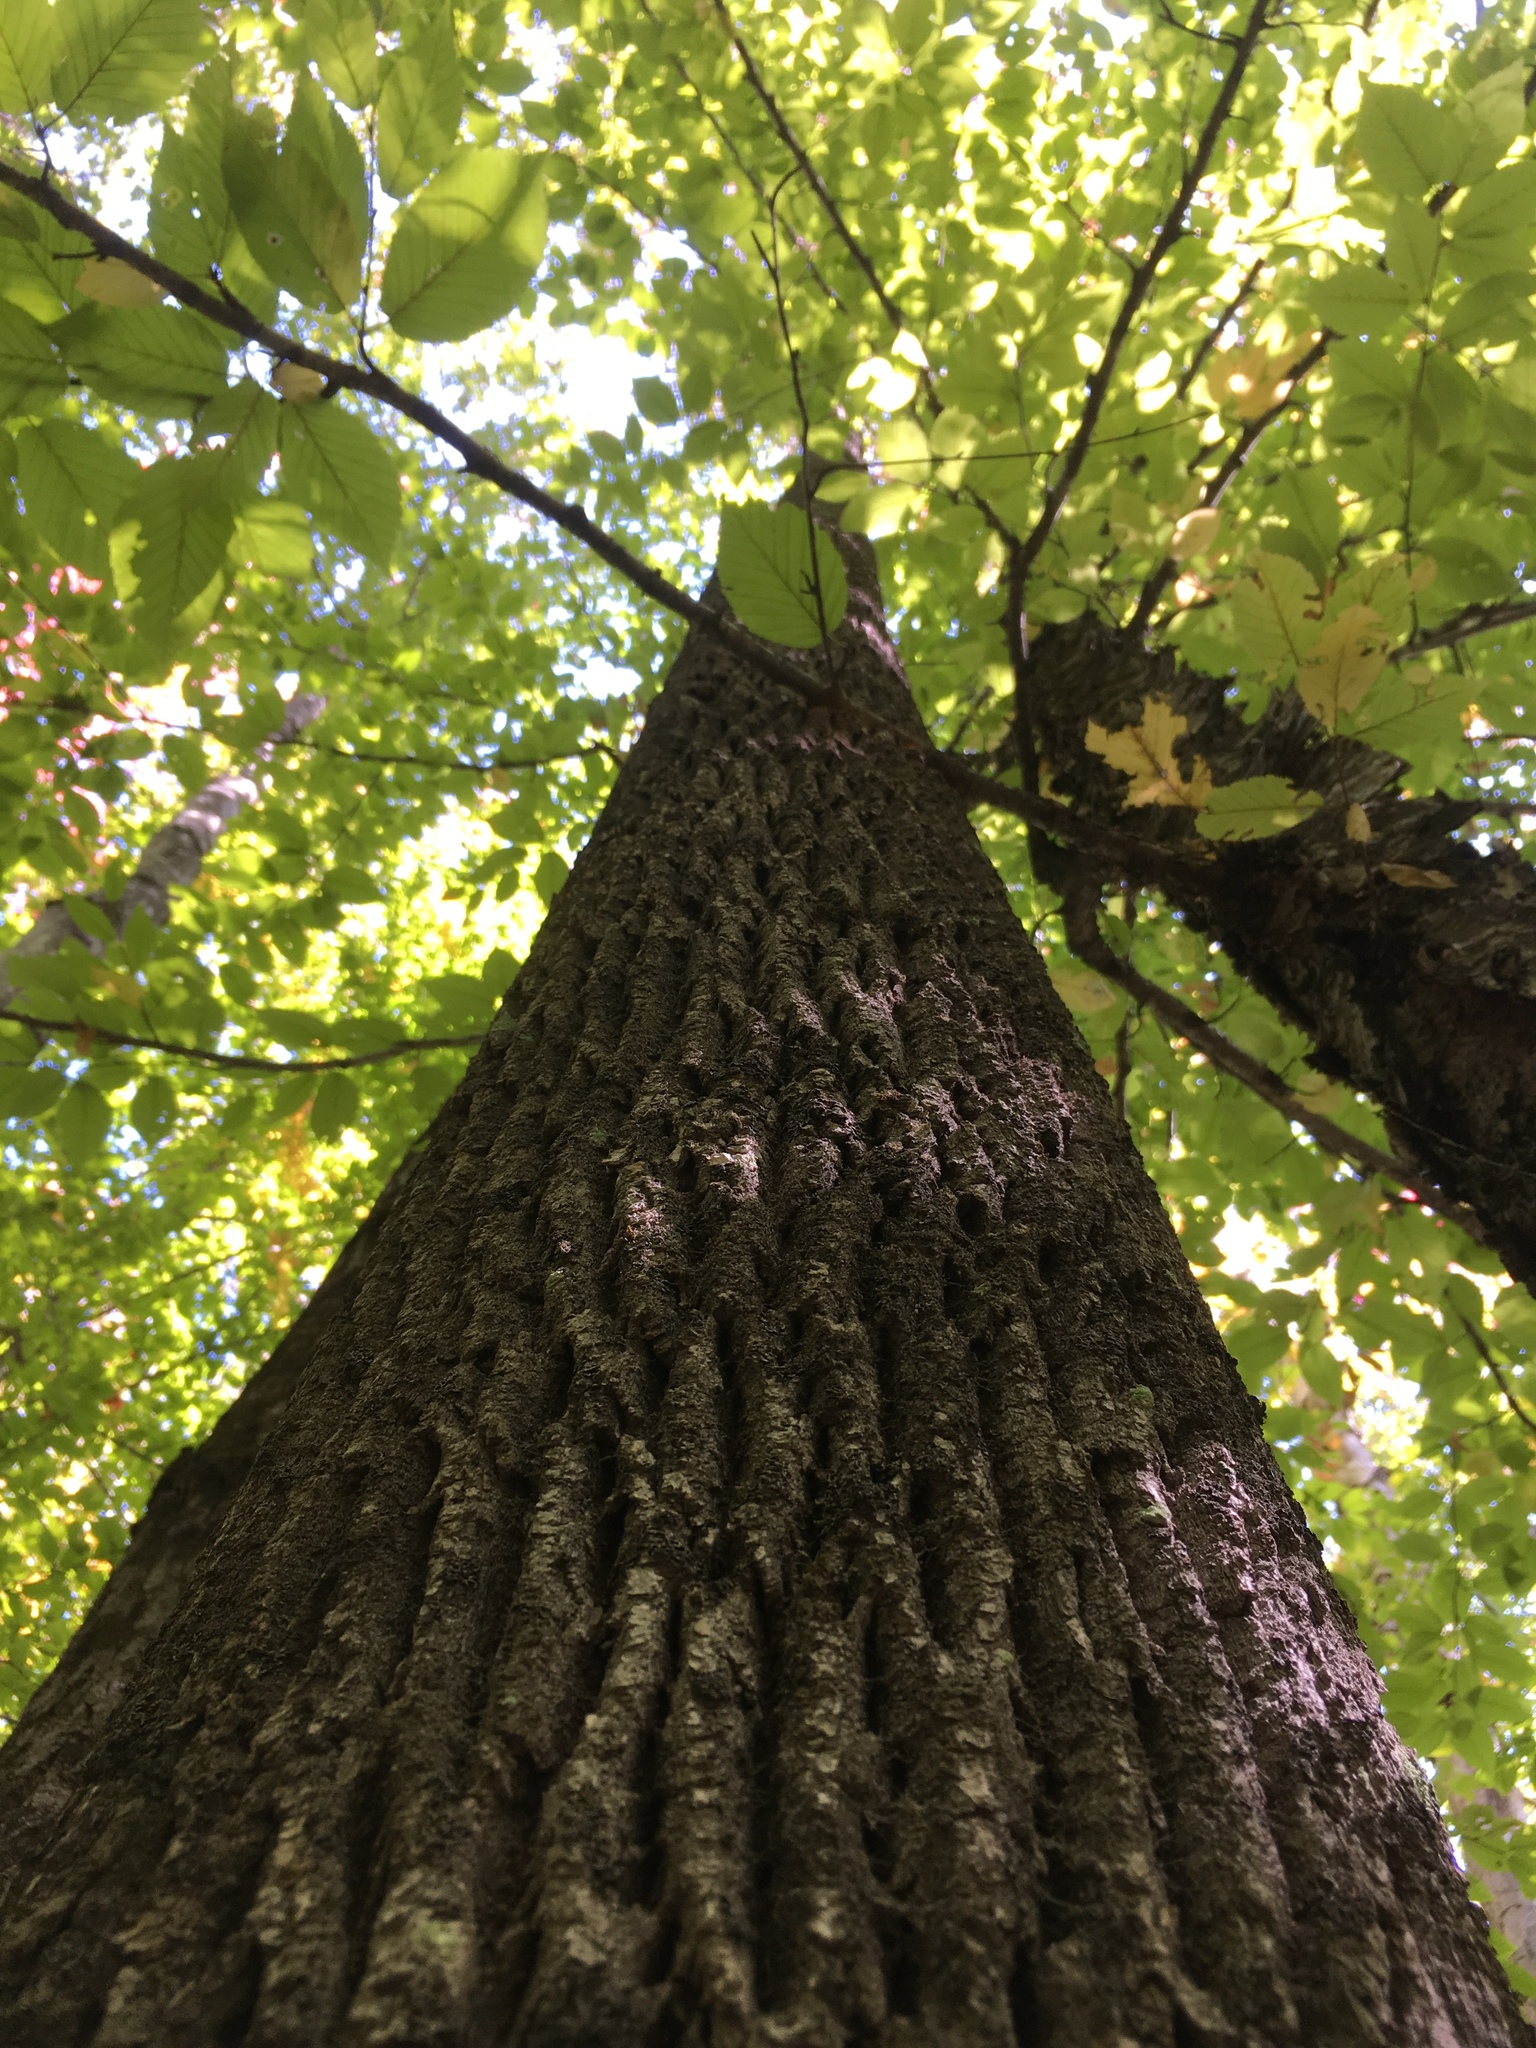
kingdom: Plantae
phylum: Tracheophyta
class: Magnoliopsida
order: Lamiales
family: Oleaceae
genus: Fraxinus
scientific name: Fraxinus americana
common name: White ash
